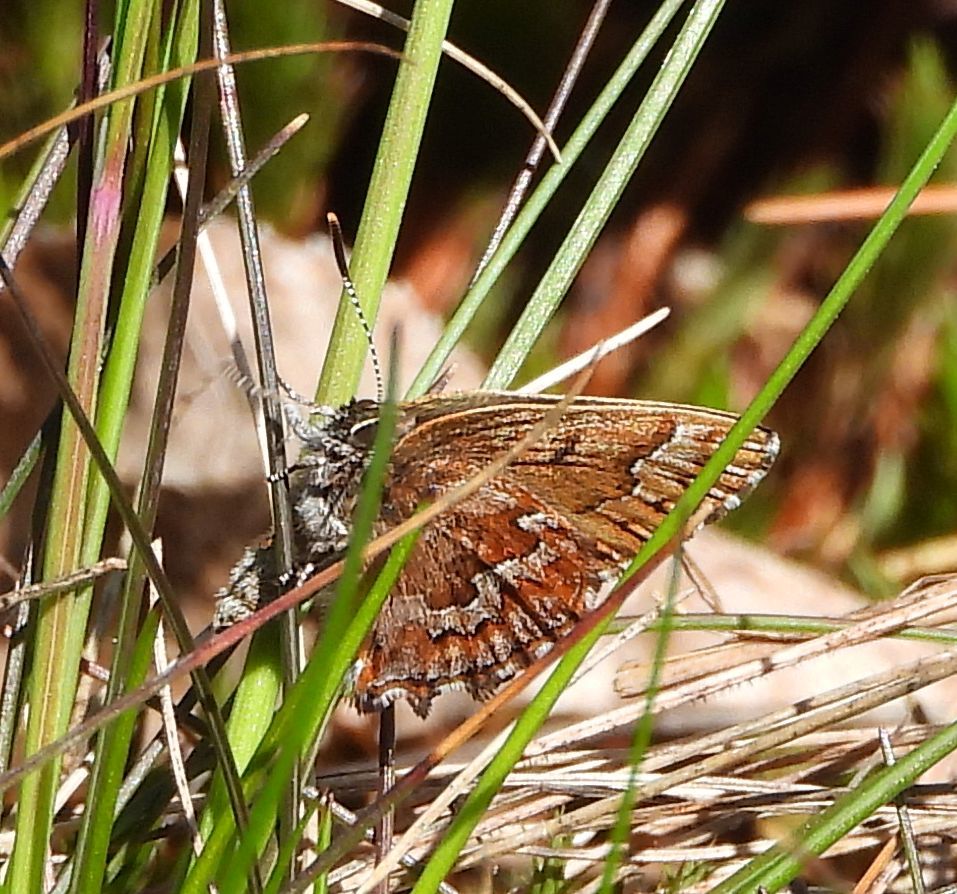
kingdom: Animalia
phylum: Arthropoda
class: Insecta
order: Lepidoptera
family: Lycaenidae
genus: Incisalia
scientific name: Incisalia niphon
